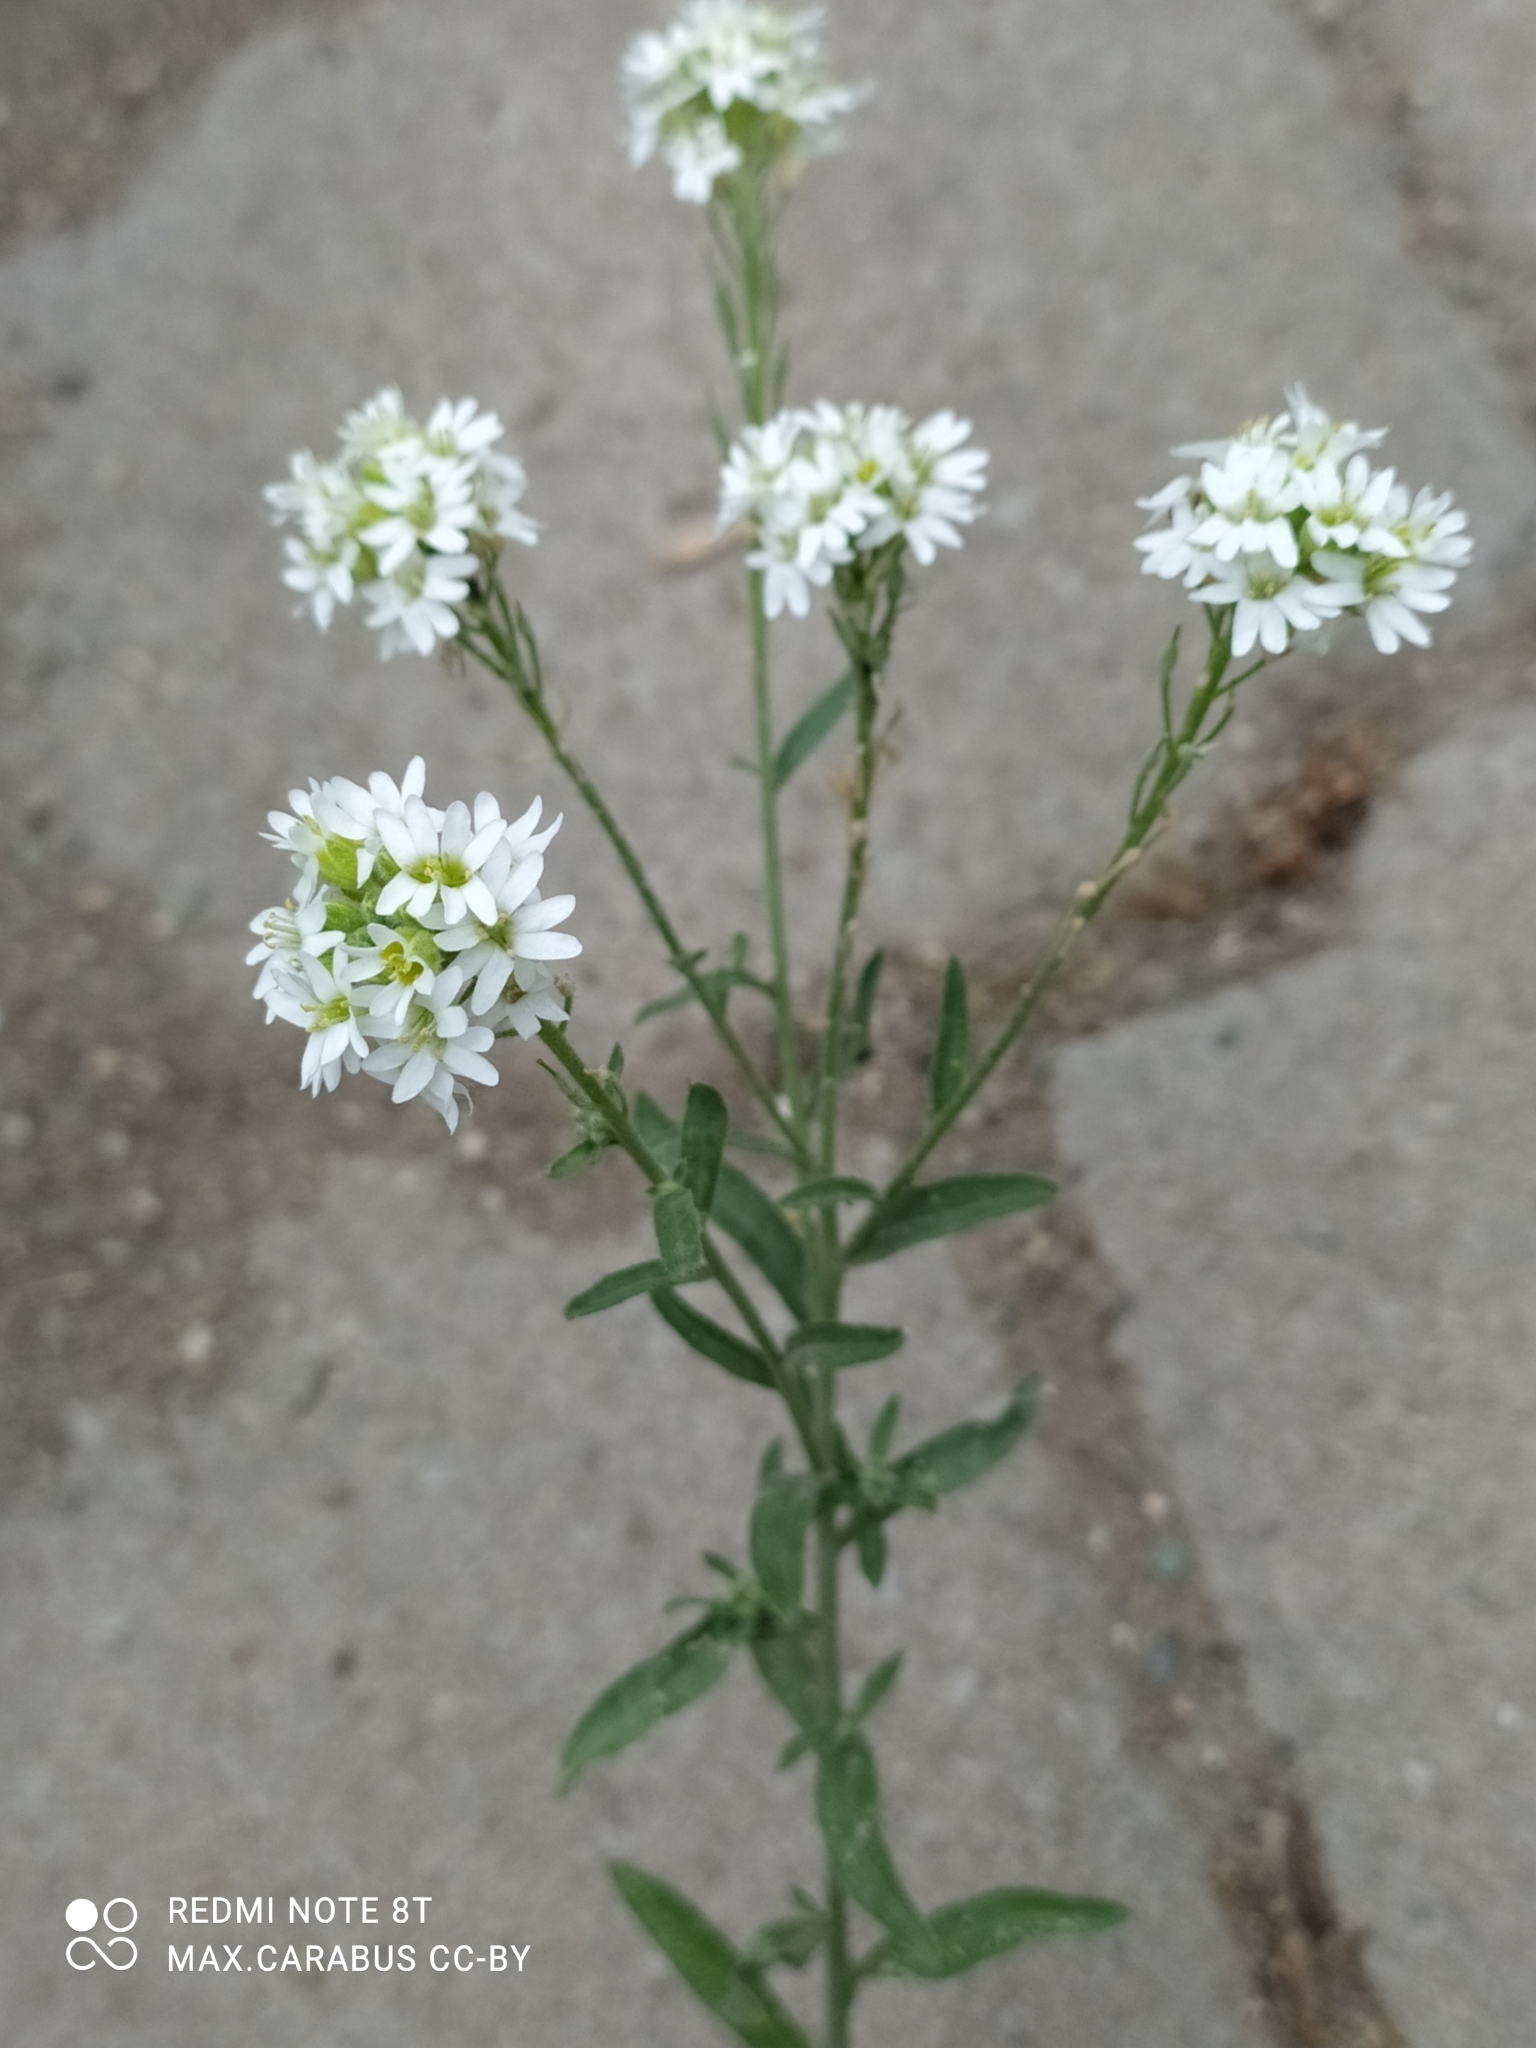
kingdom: Plantae
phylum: Tracheophyta
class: Magnoliopsida
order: Brassicales
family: Brassicaceae
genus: Berteroa
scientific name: Berteroa incana
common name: Hoary alison
